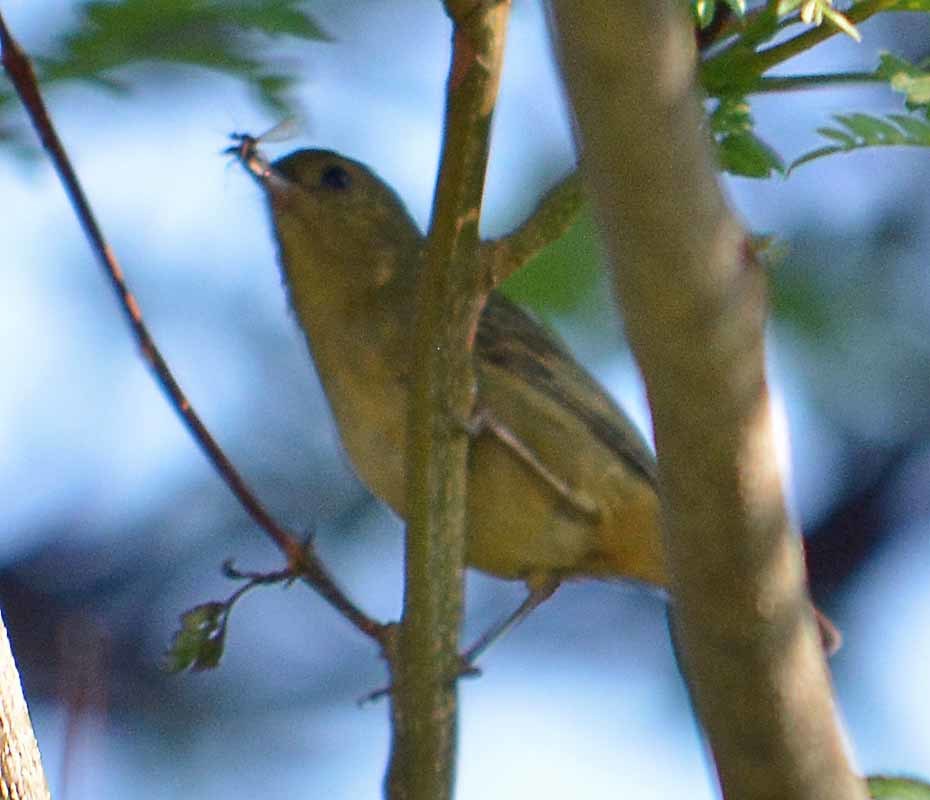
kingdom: Animalia
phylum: Chordata
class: Aves
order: Passeriformes
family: Thraupidae
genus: Diglossa
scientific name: Diglossa baritula
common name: Cinnamon-bellied flowerpiercer
